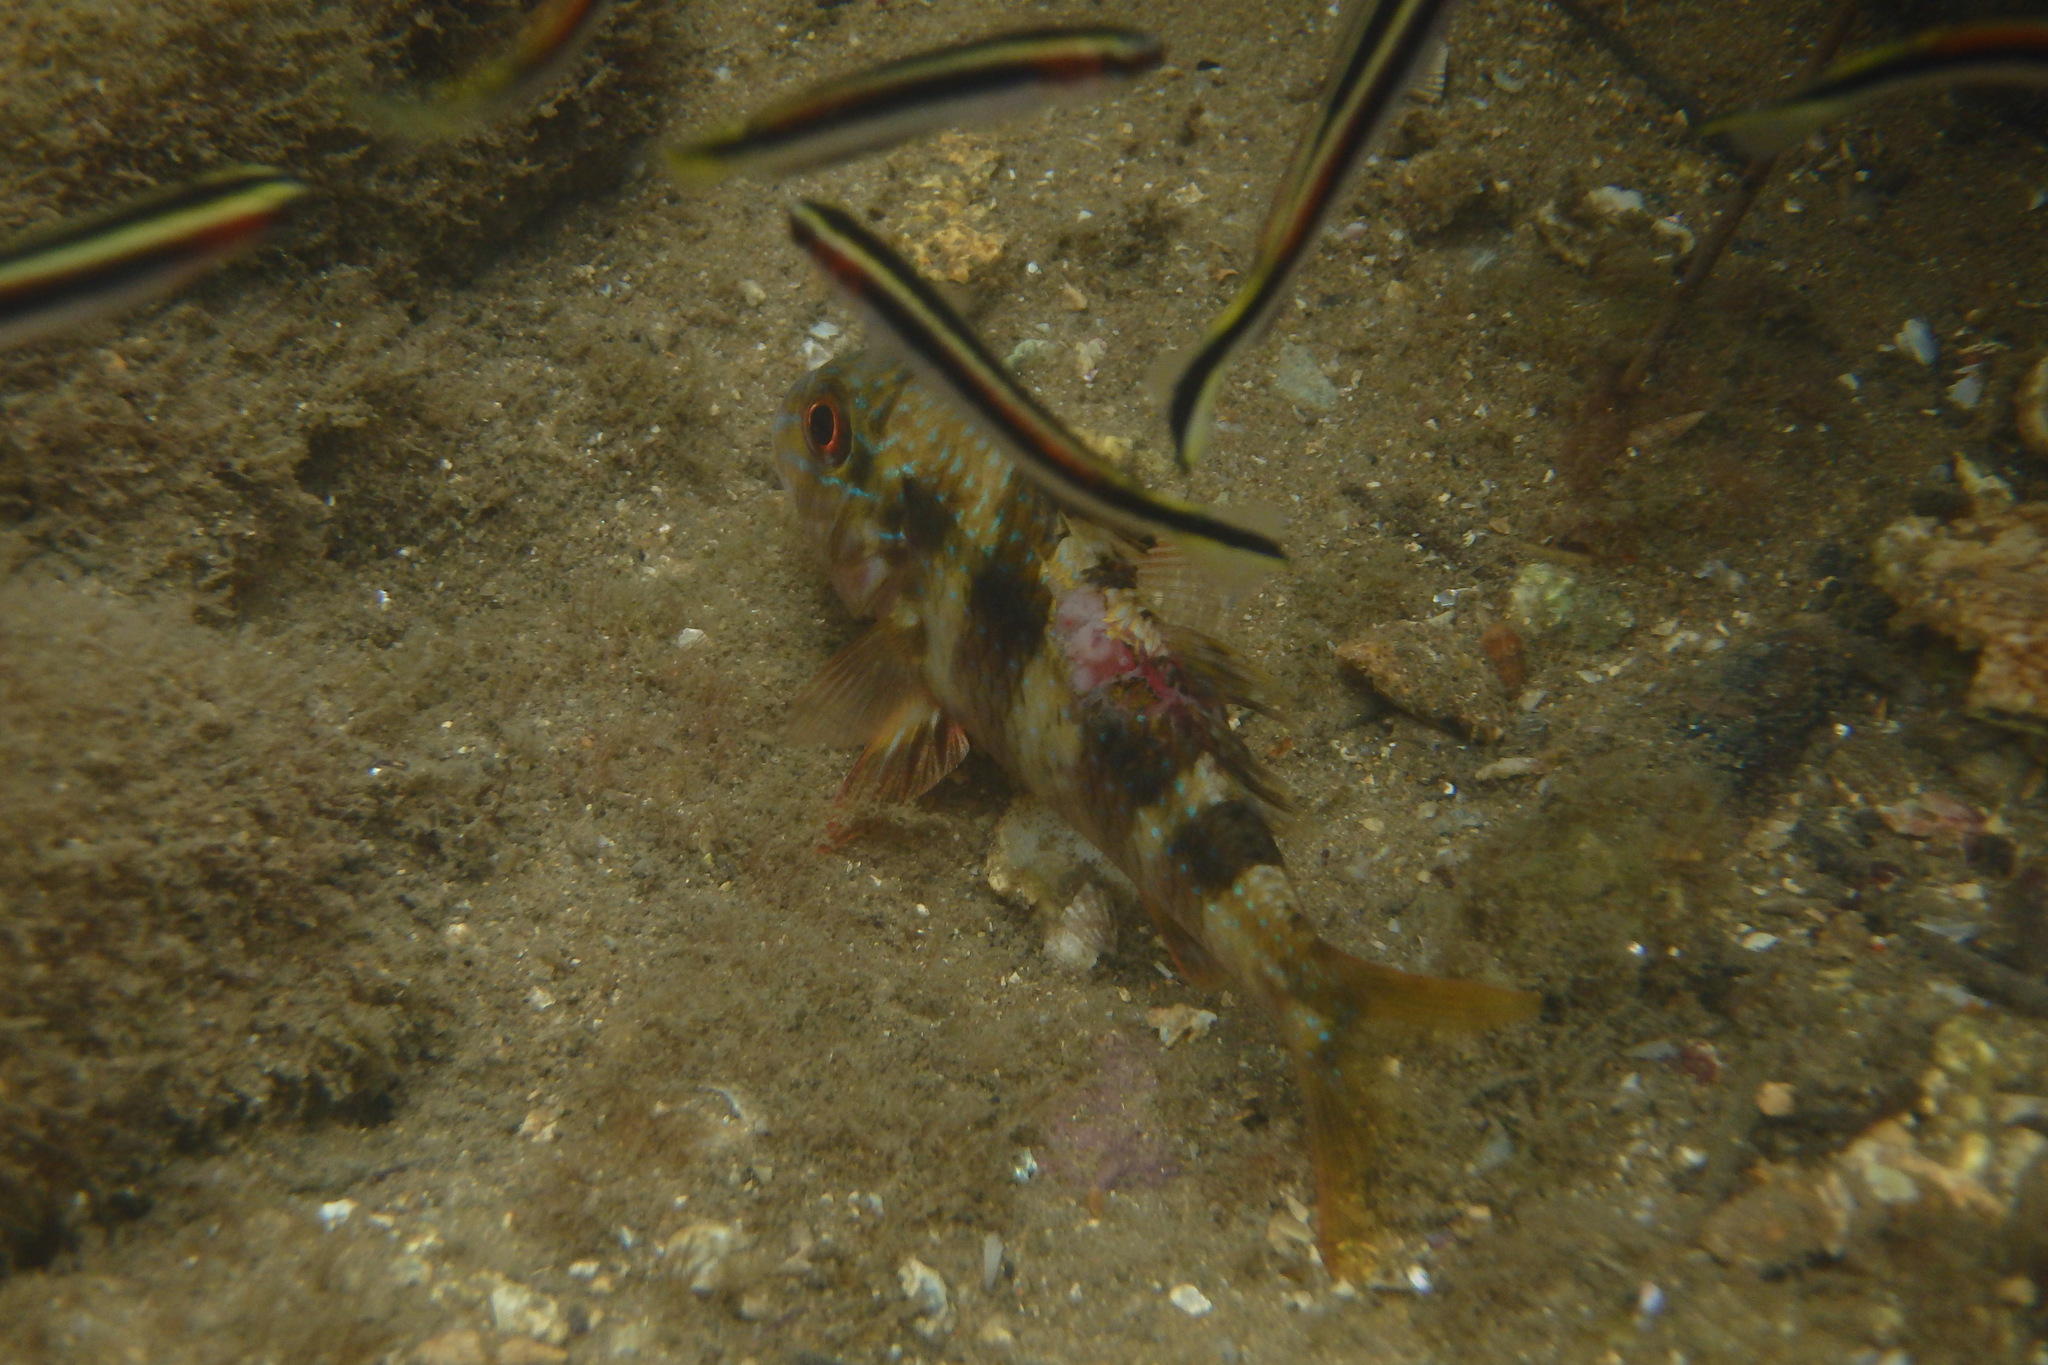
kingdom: Animalia
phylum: Chordata
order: Perciformes
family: Mullidae
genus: Upeneichthys
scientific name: Upeneichthys lineatus
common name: Red mullet
